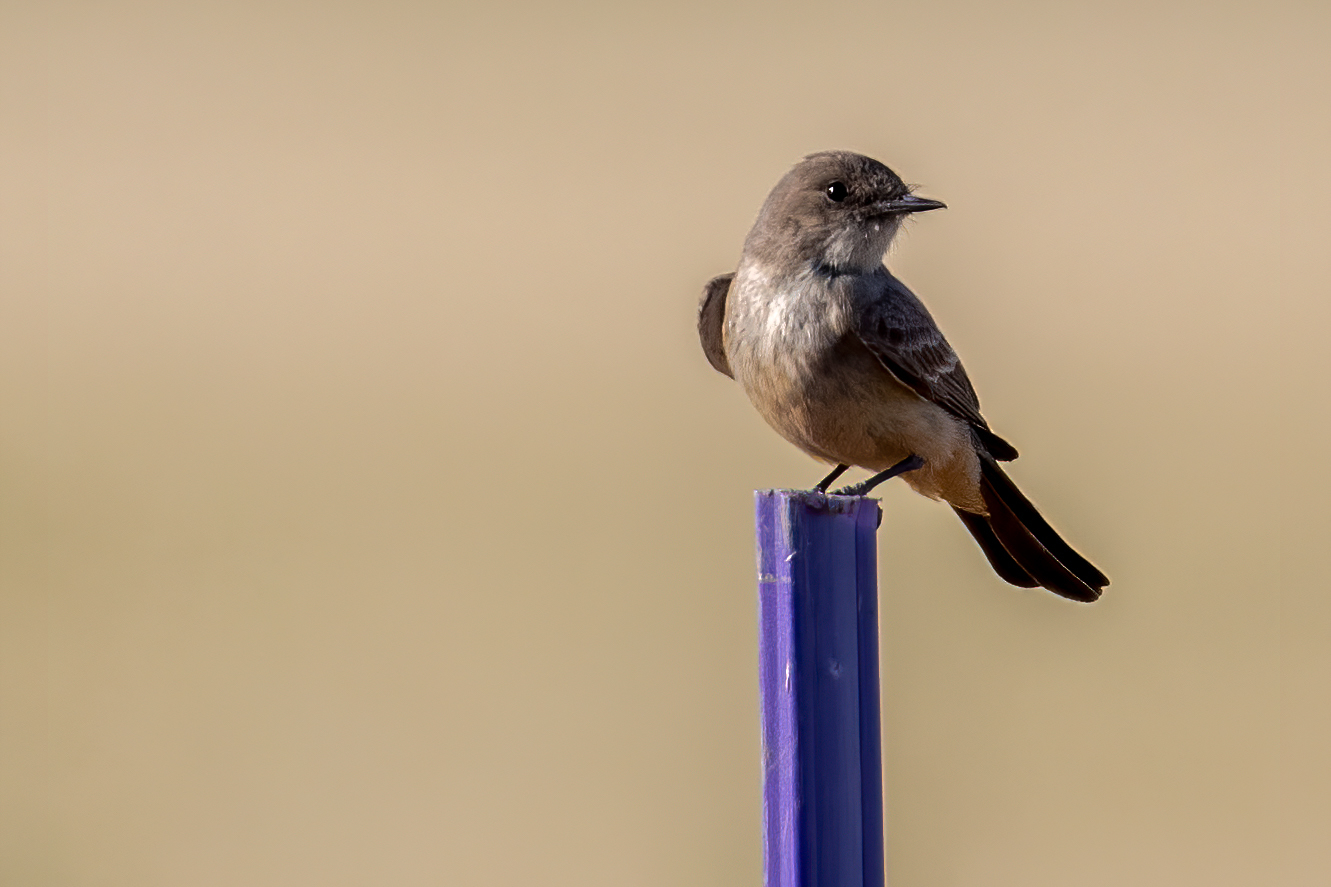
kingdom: Animalia
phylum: Chordata
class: Aves
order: Passeriformes
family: Tyrannidae
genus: Sayornis
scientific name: Sayornis saya
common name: Say's phoebe
